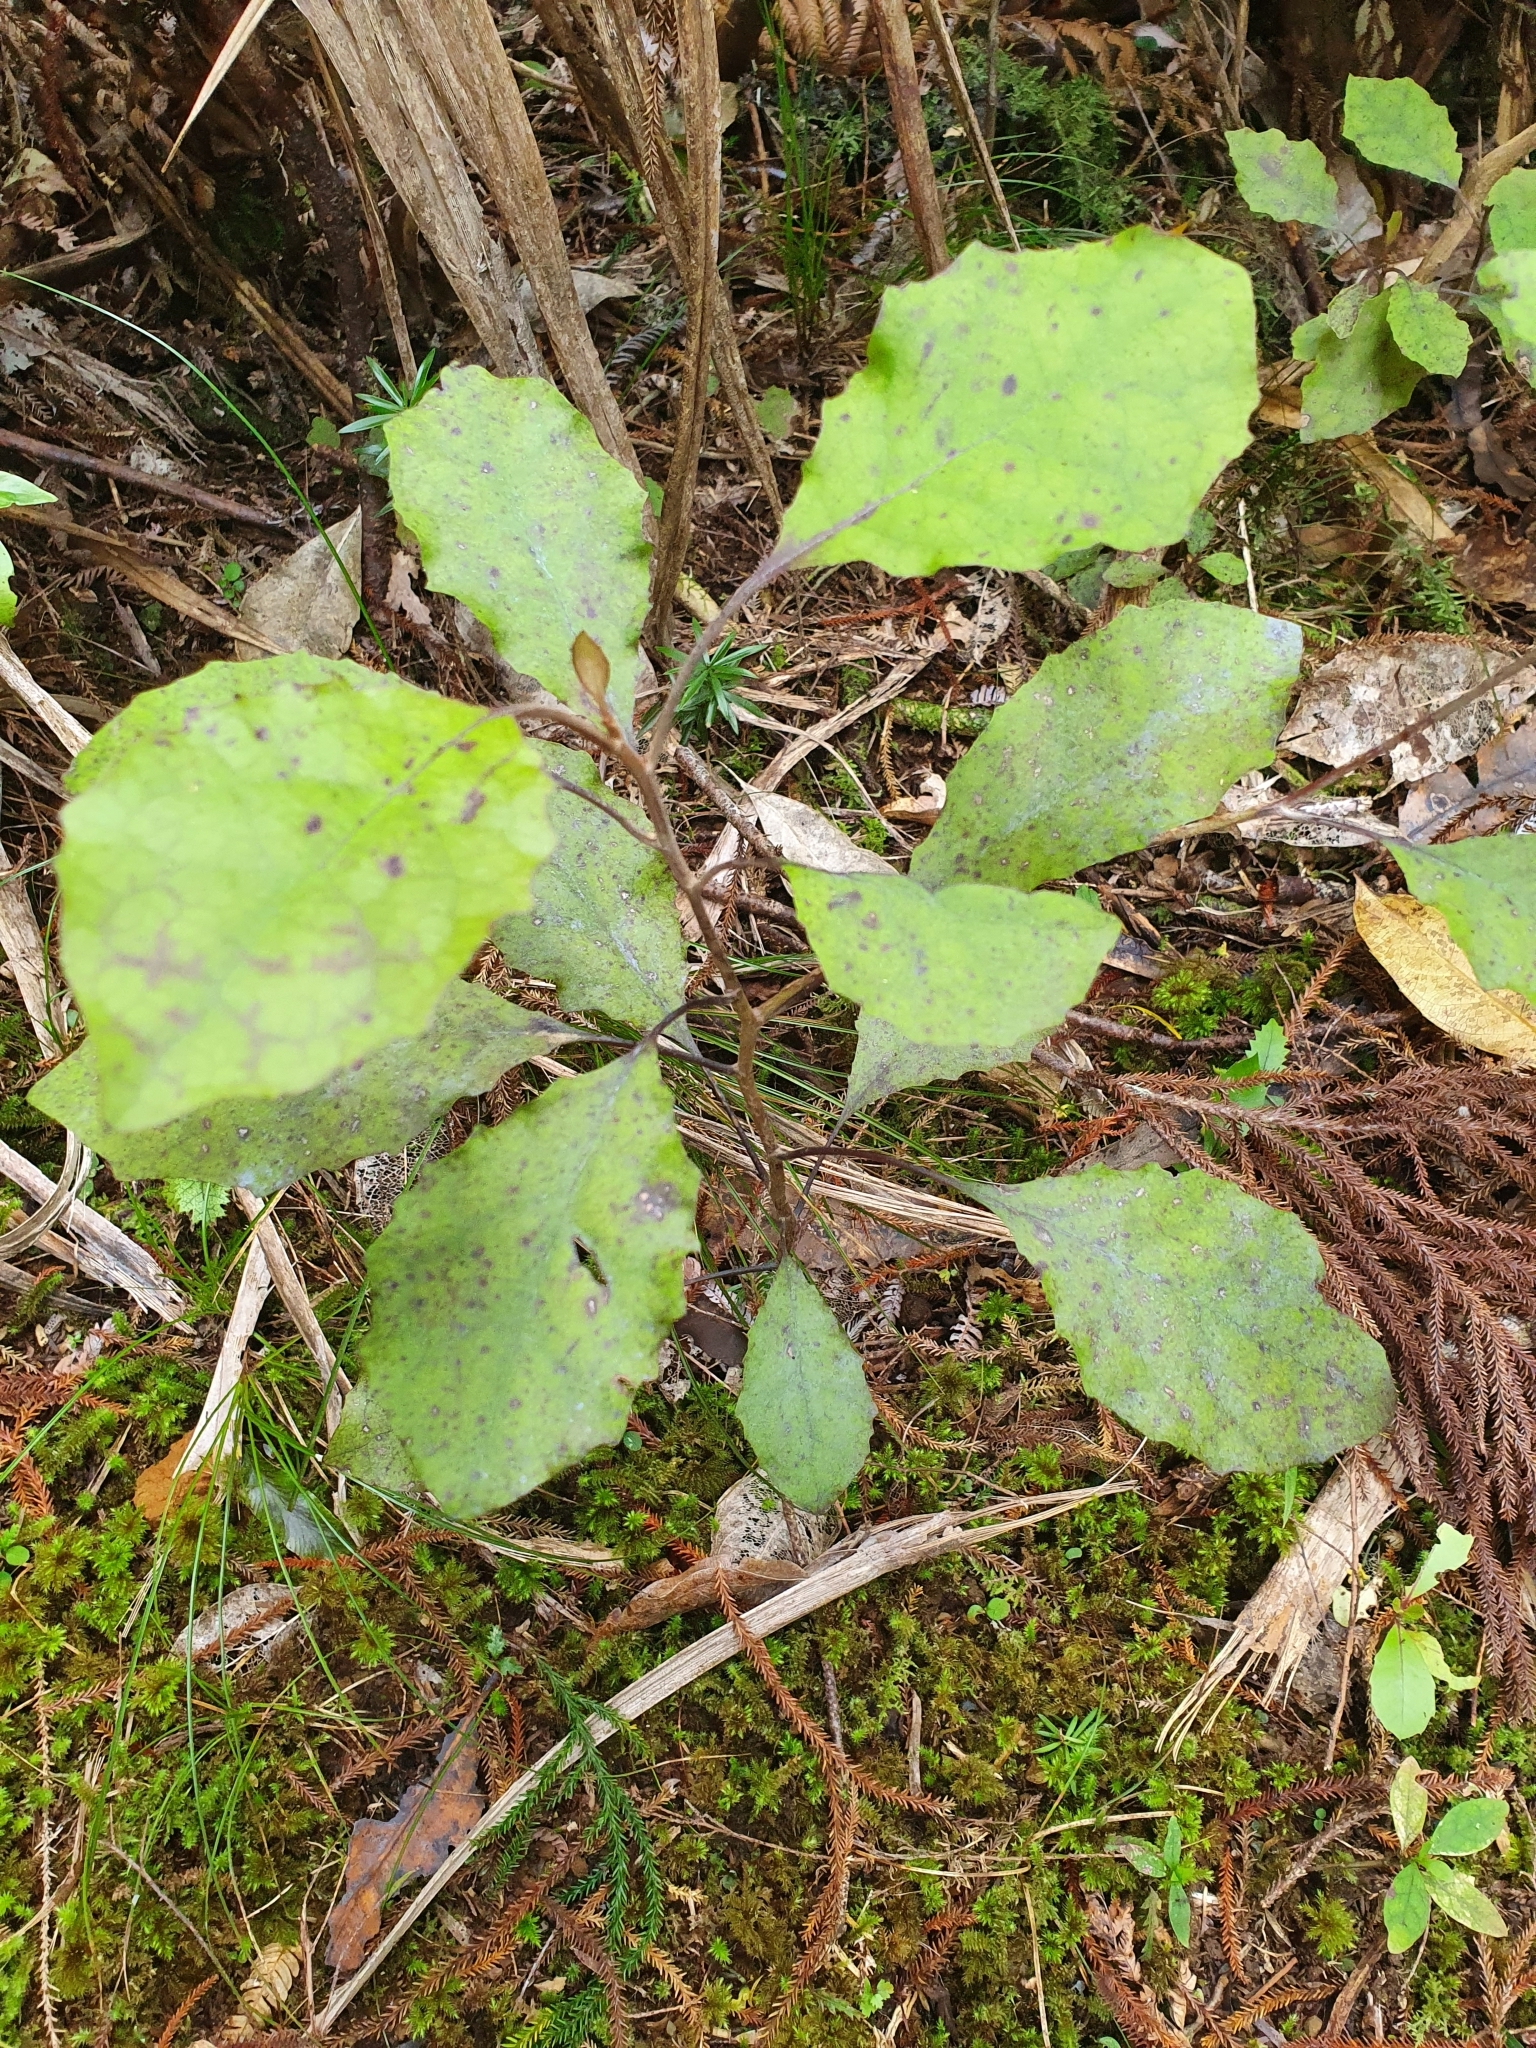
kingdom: Plantae
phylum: Tracheophyta
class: Magnoliopsida
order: Asterales
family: Asteraceae
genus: Olearia
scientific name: Olearia rani
